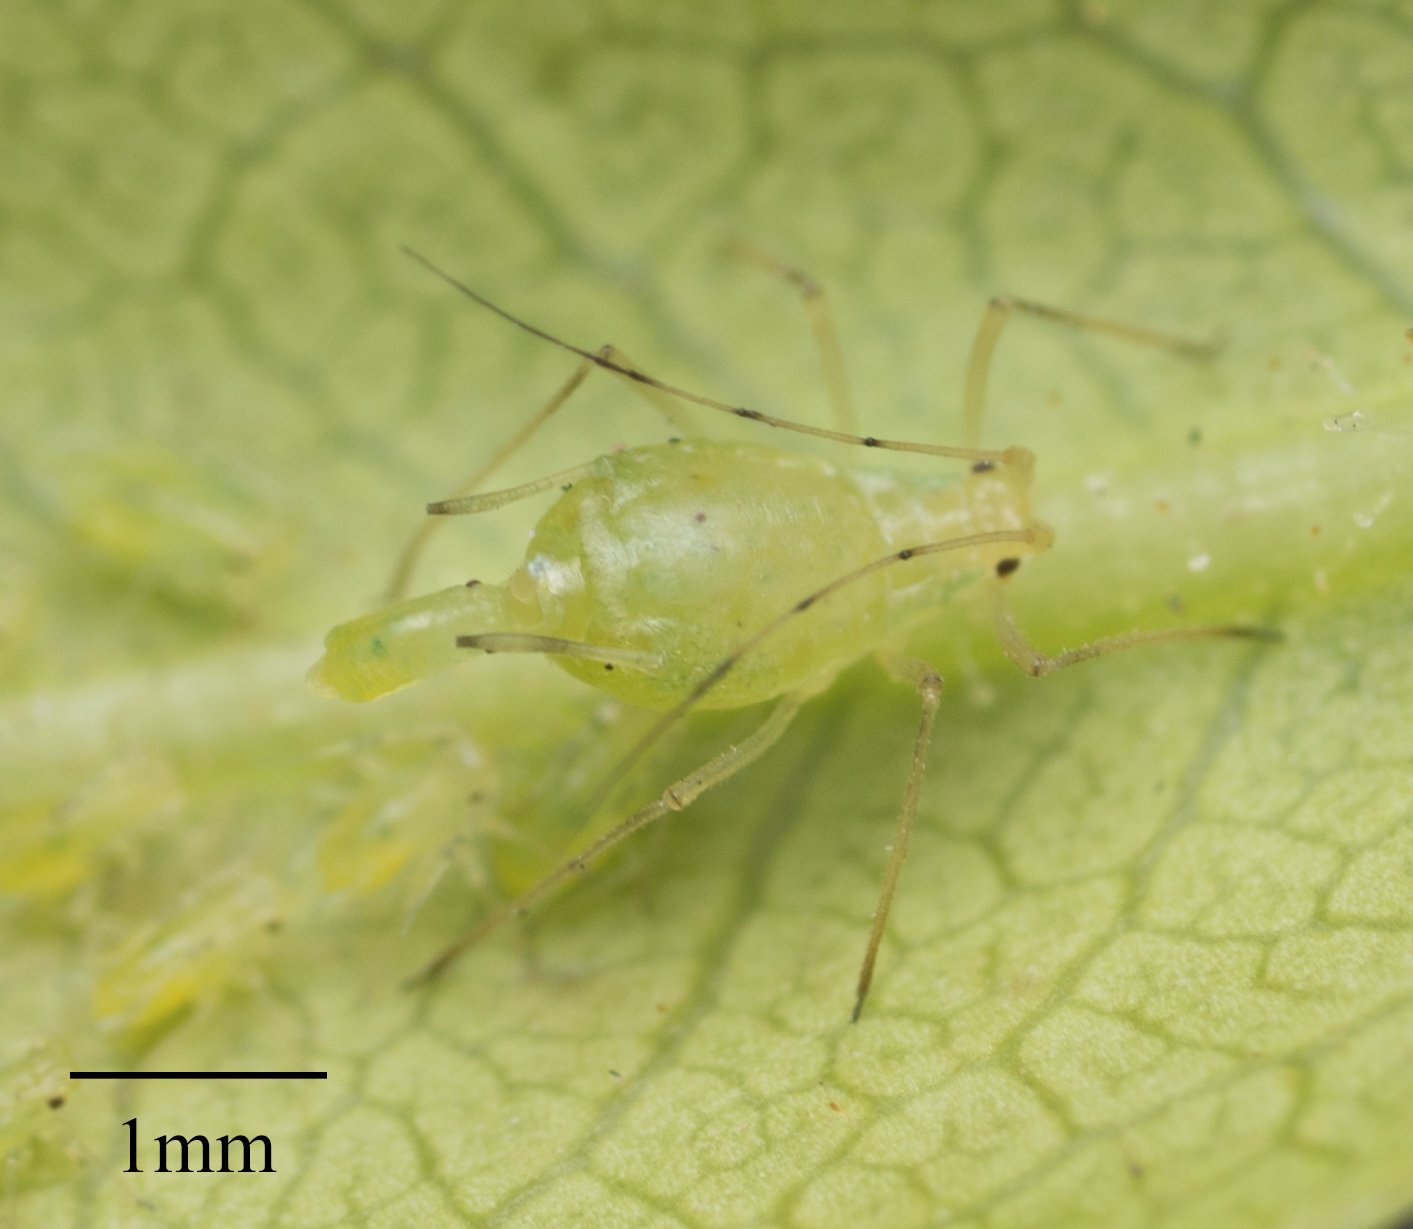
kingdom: Animalia
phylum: Arthropoda
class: Insecta
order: Hemiptera
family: Aphididae
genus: Wahlgreniella
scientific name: Wahlgreniella nervata
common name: Pale green aphid
